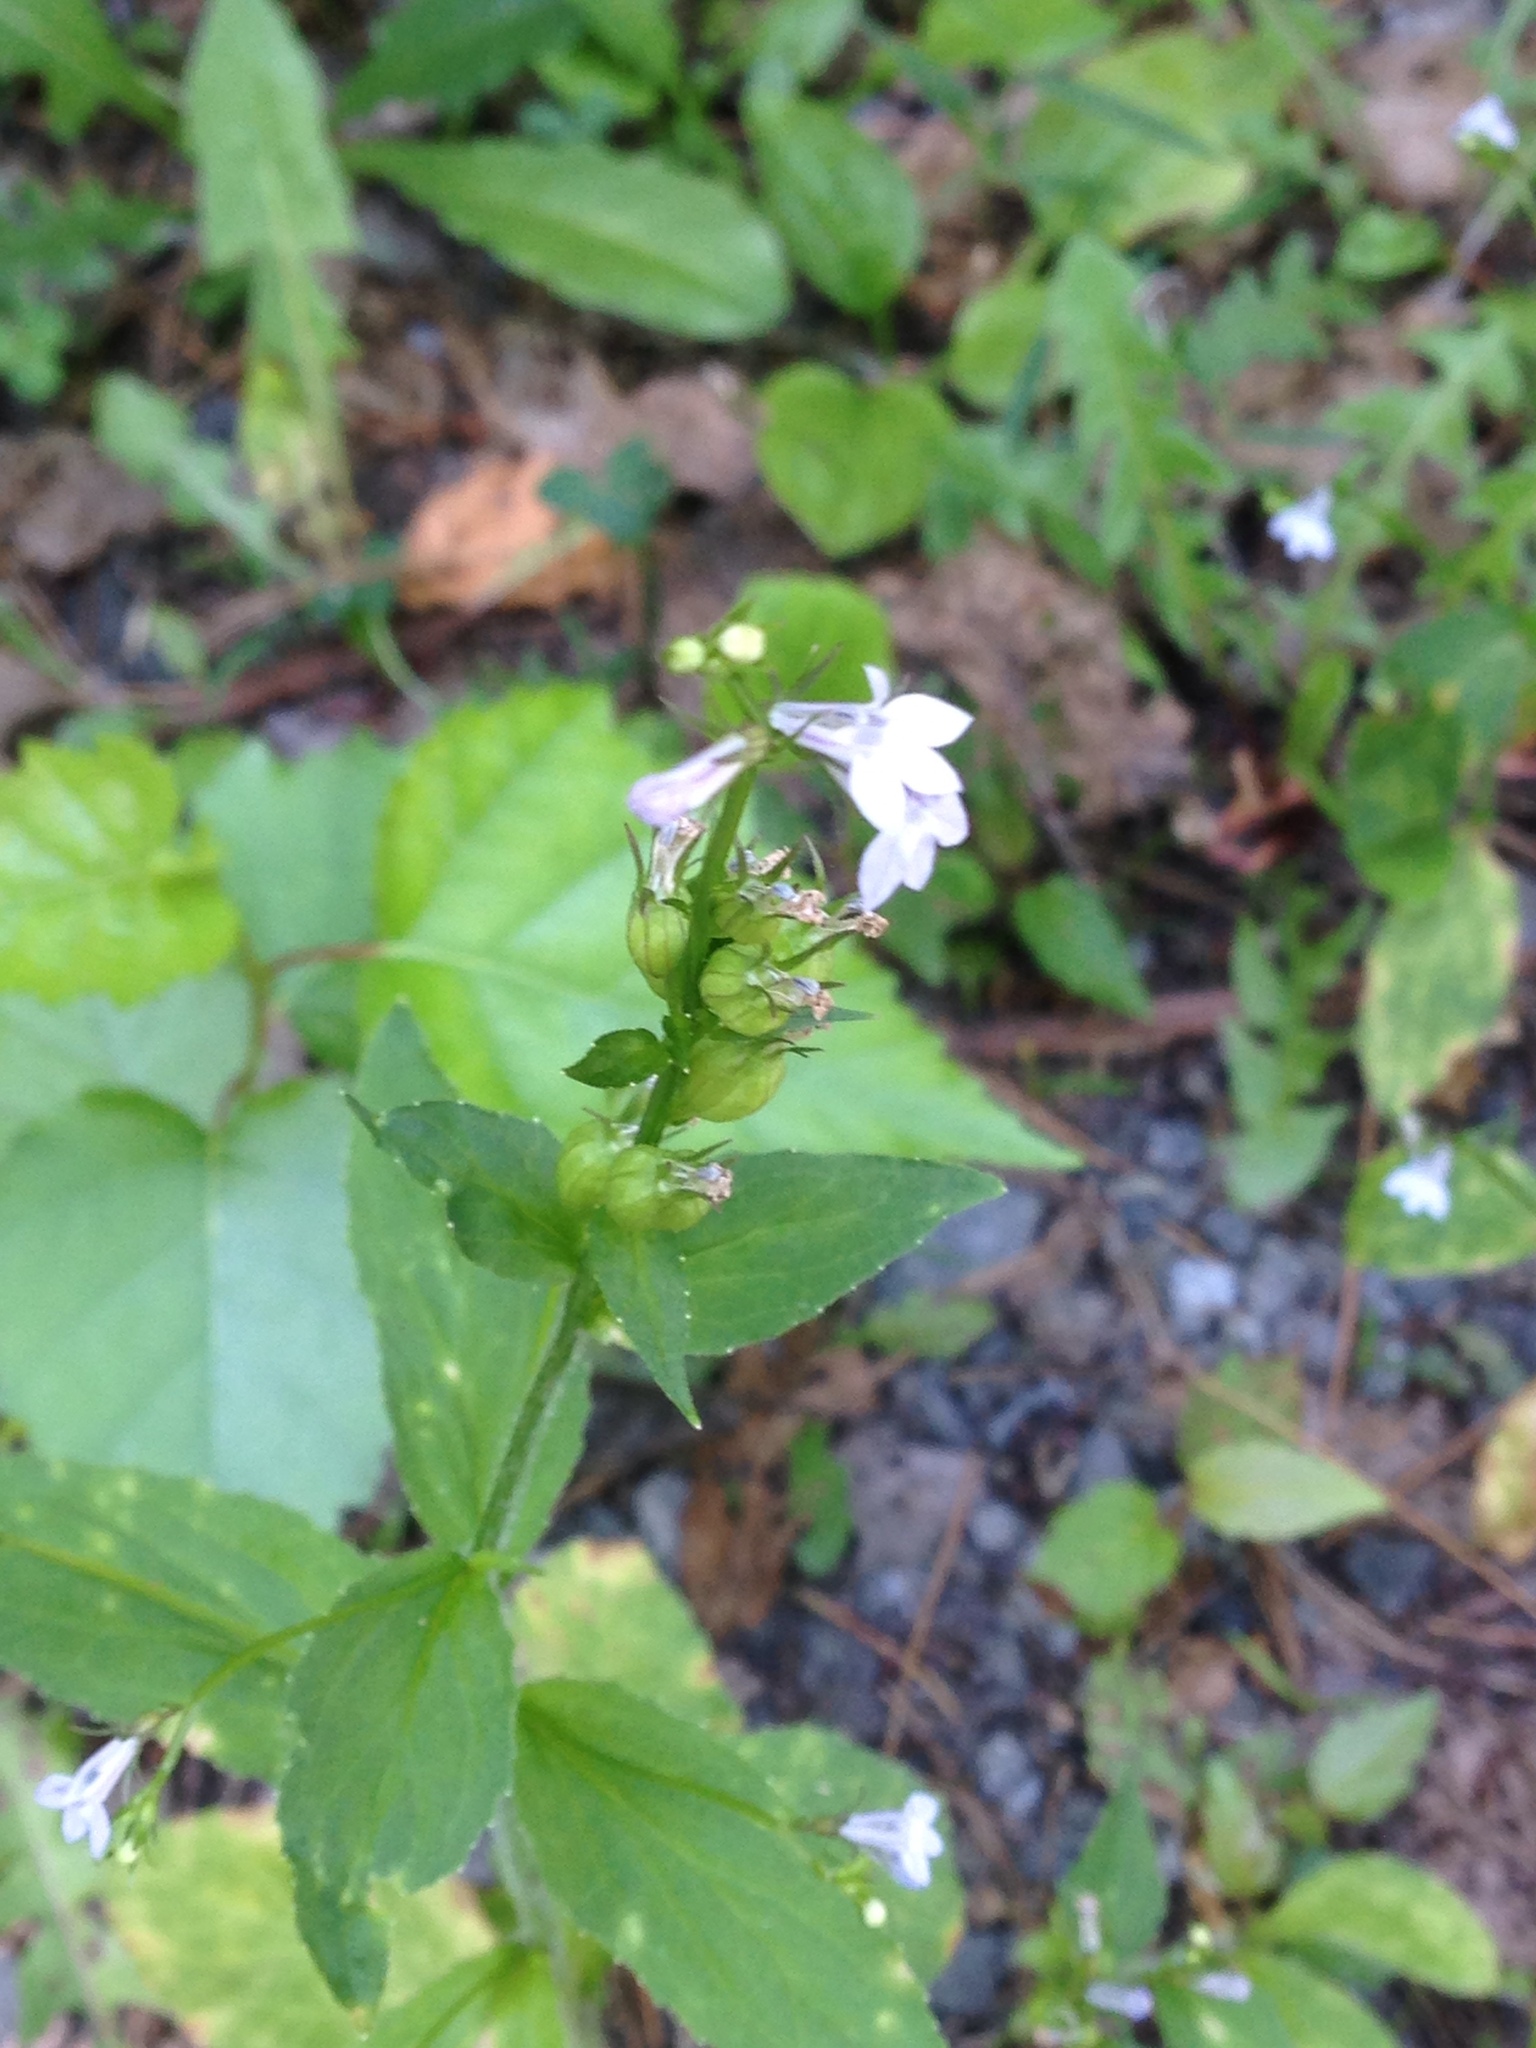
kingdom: Plantae
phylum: Tracheophyta
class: Magnoliopsida
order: Asterales
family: Campanulaceae
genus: Lobelia
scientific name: Lobelia inflata
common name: Indian tobacco
